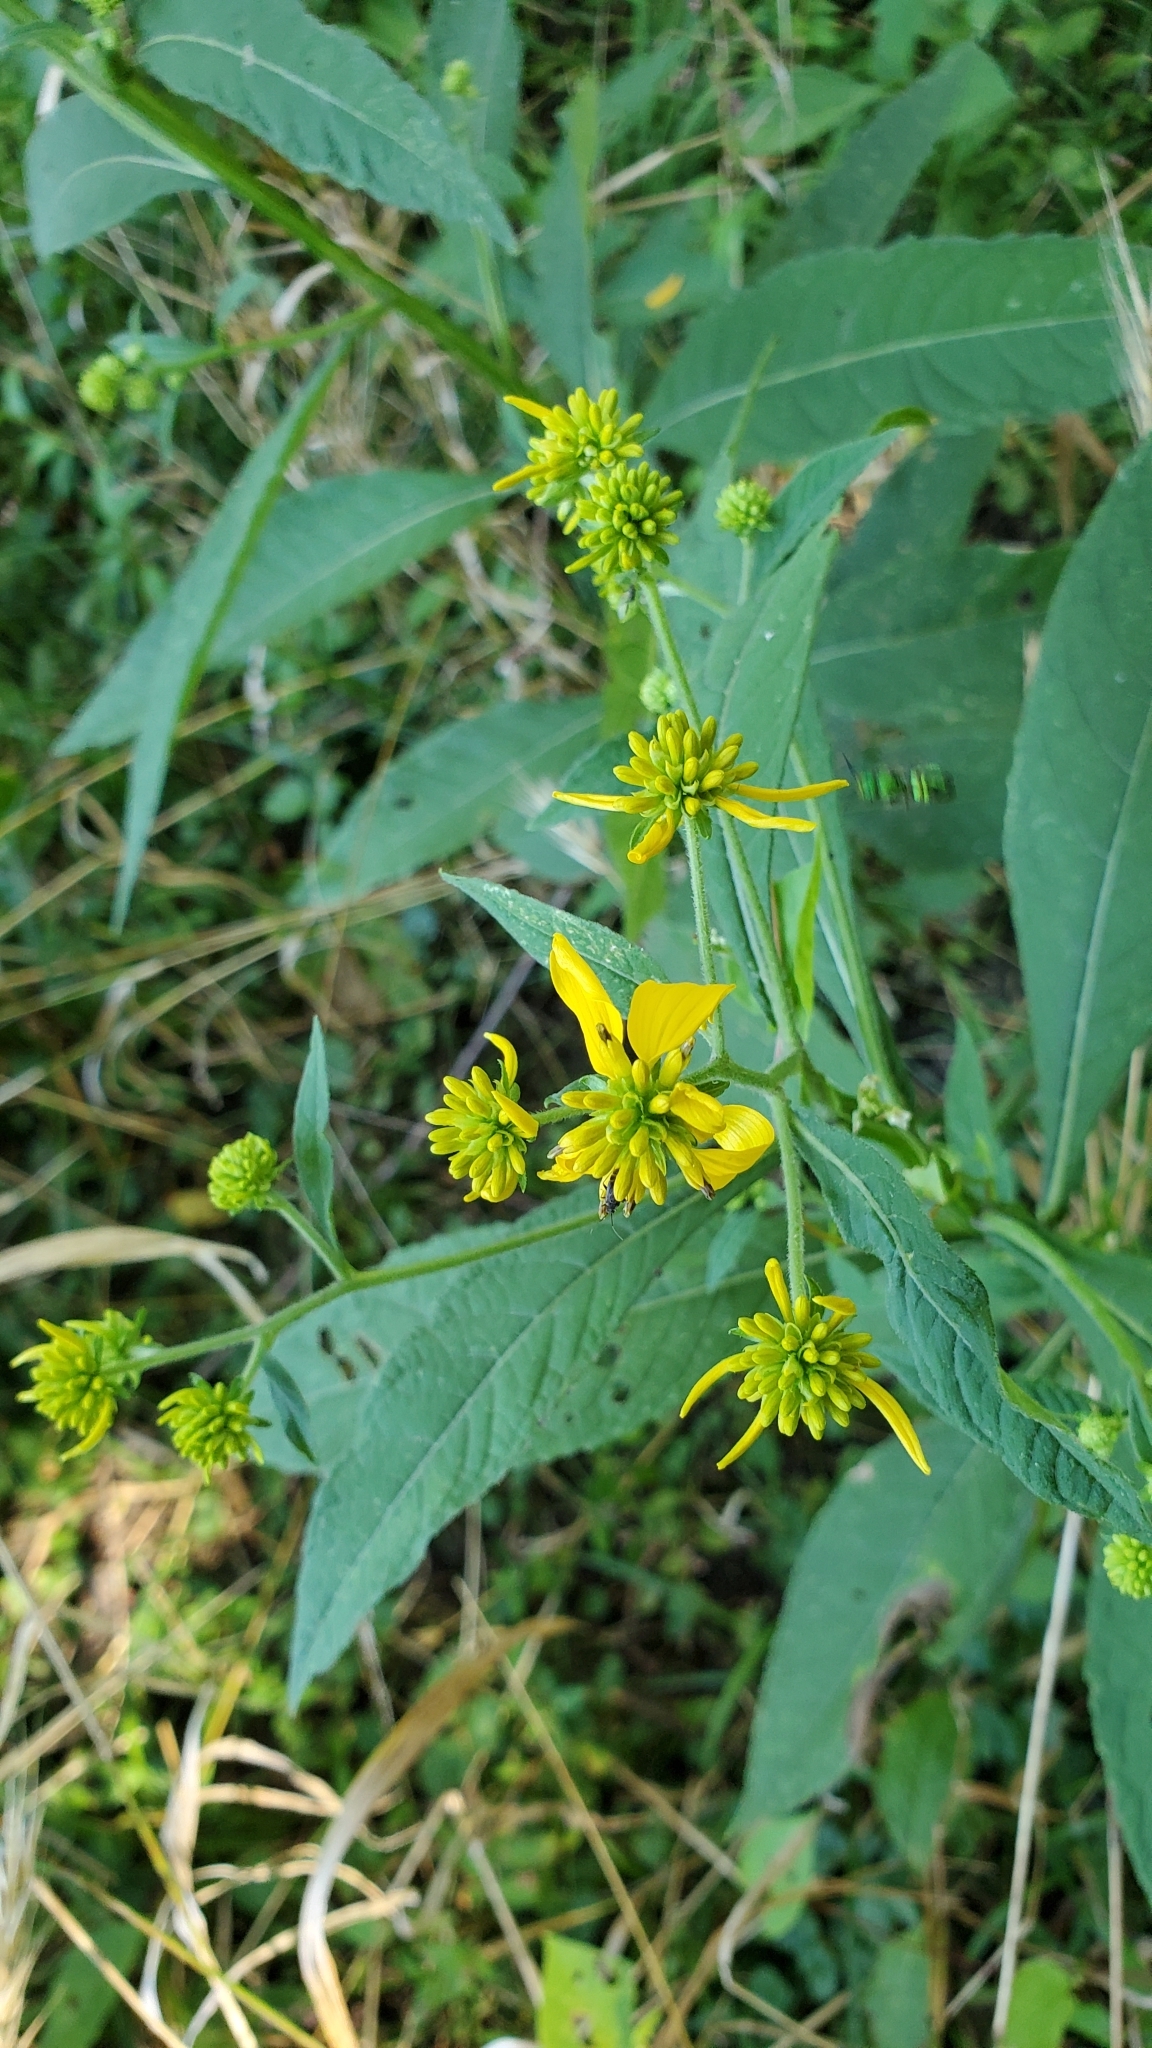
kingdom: Plantae
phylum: Tracheophyta
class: Magnoliopsida
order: Asterales
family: Asteraceae
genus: Verbesina
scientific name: Verbesina alternifolia
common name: Wingstem
